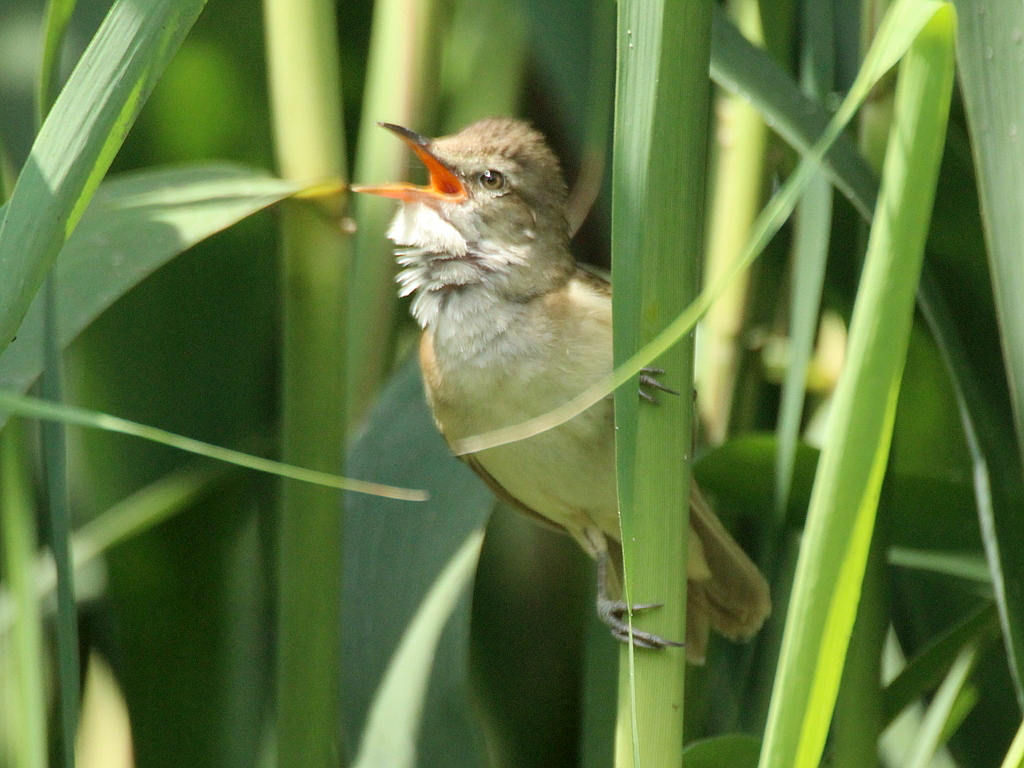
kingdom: Animalia
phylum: Chordata
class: Aves
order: Passeriformes
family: Acrocephalidae
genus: Acrocephalus
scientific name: Acrocephalus arundinaceus
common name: Great reed warbler
